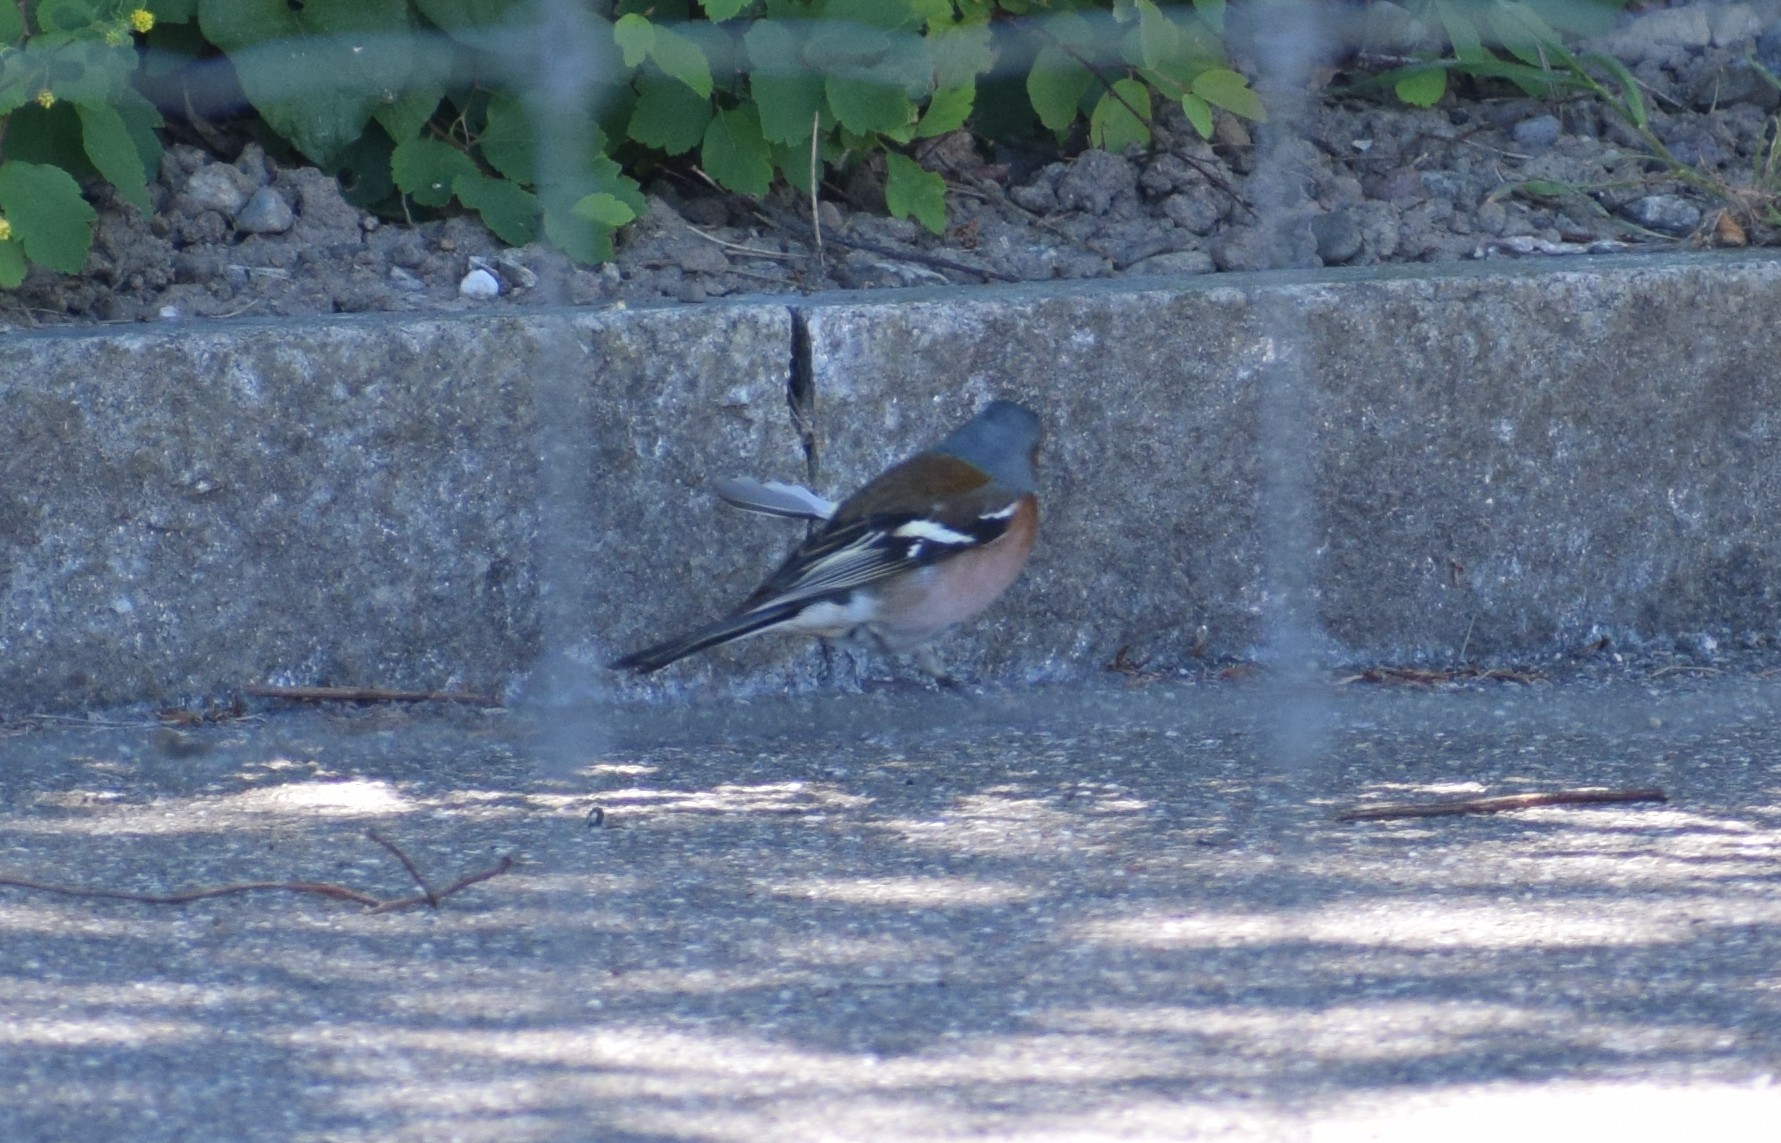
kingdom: Animalia
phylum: Chordata
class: Aves
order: Passeriformes
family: Fringillidae
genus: Fringilla
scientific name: Fringilla coelebs
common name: Common chaffinch
